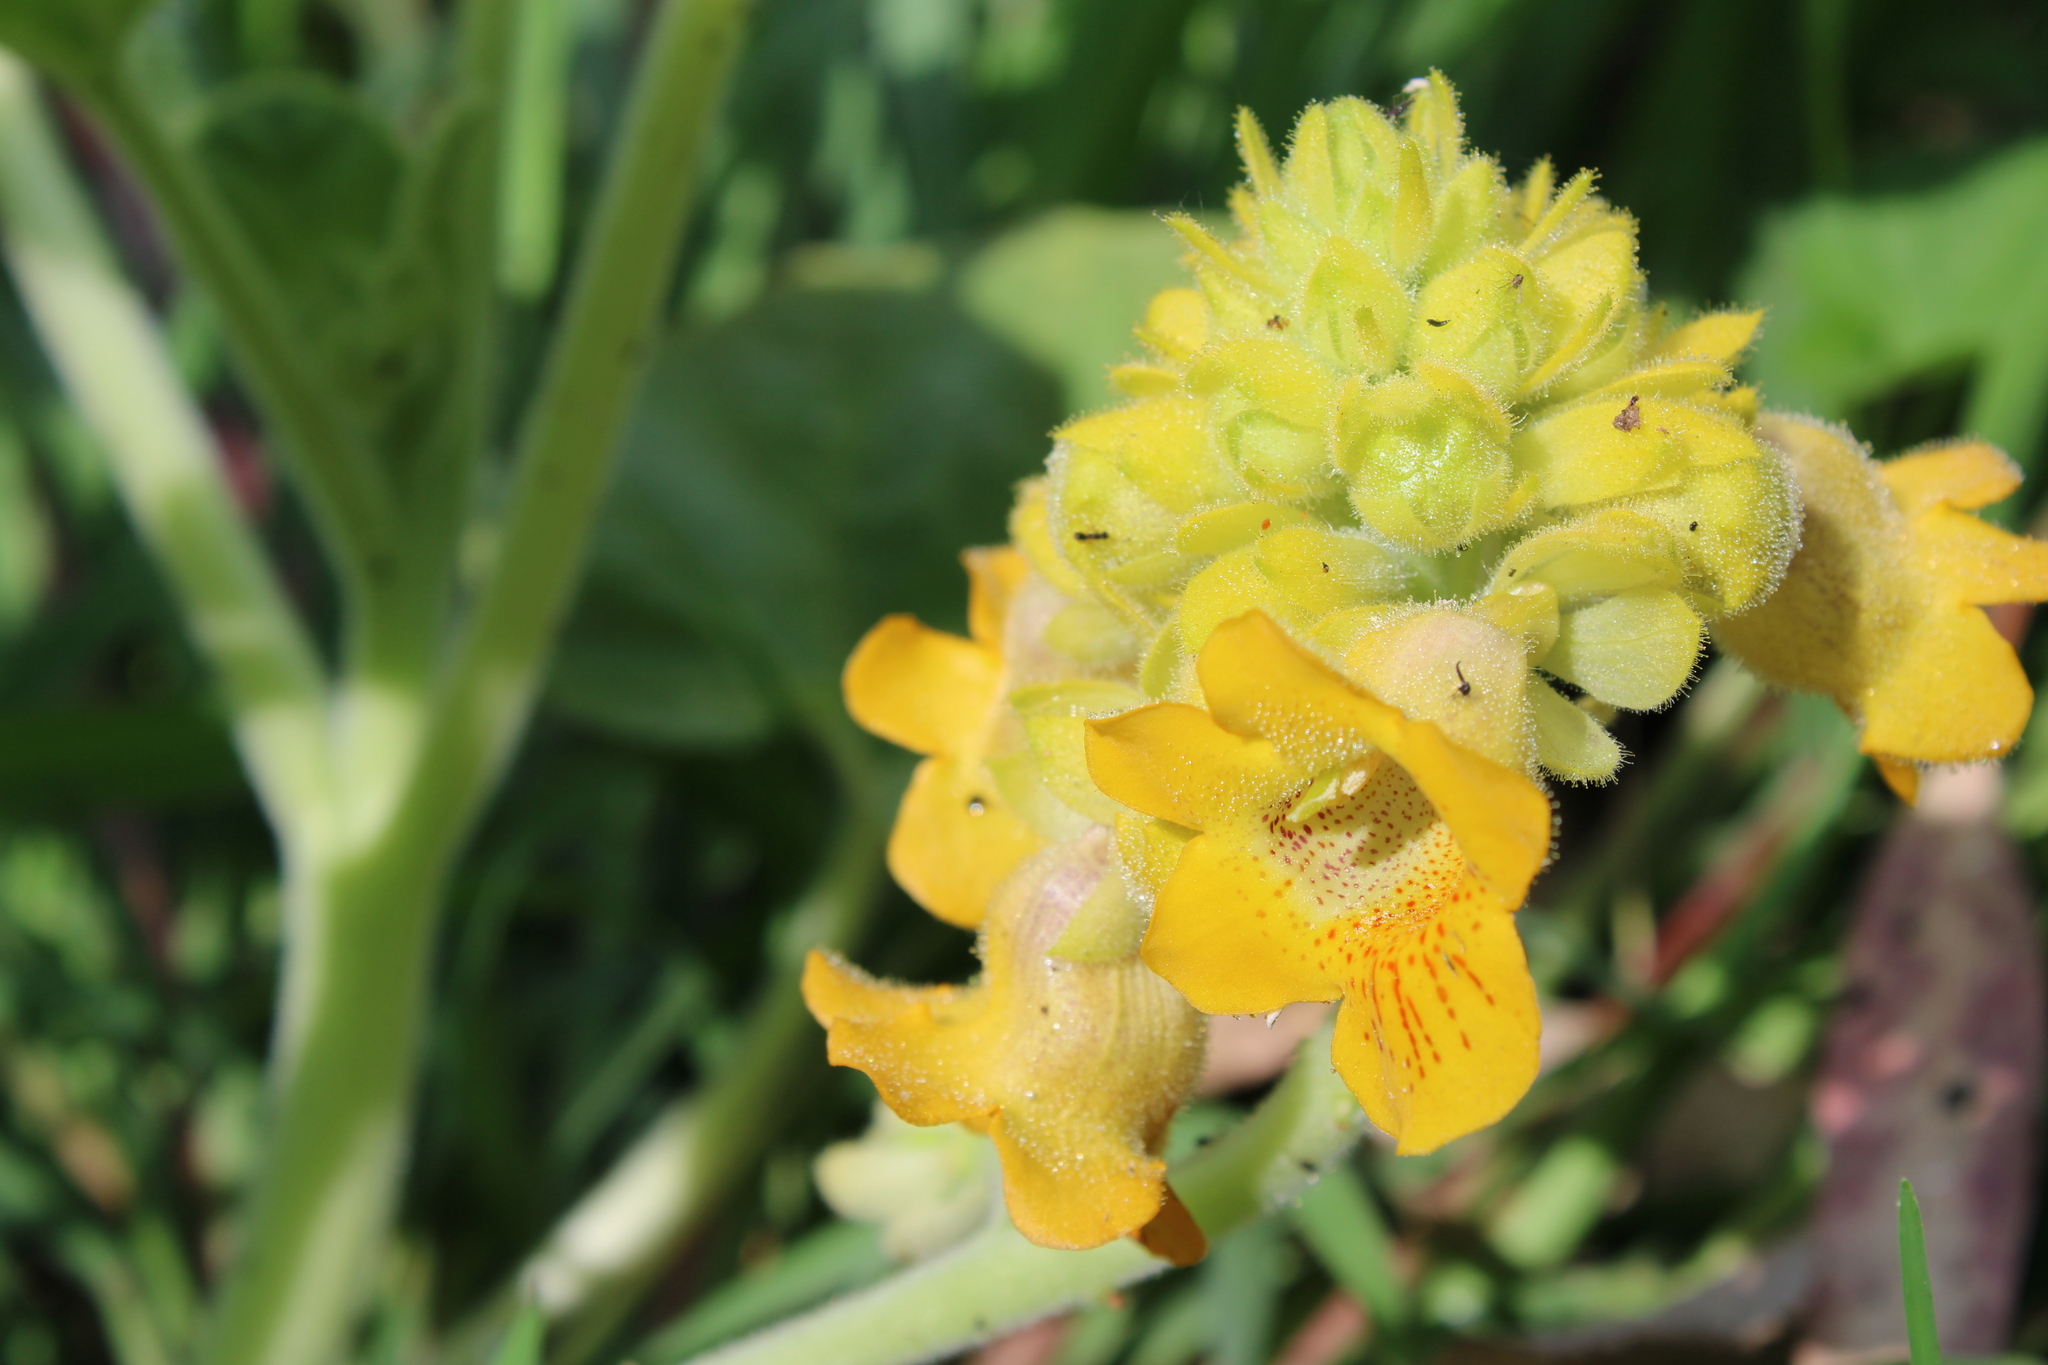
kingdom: Plantae
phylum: Tracheophyta
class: Magnoliopsida
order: Lamiales
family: Martyniaceae
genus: Ibicella
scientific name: Ibicella lutea
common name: Yellow unicorn-plant
